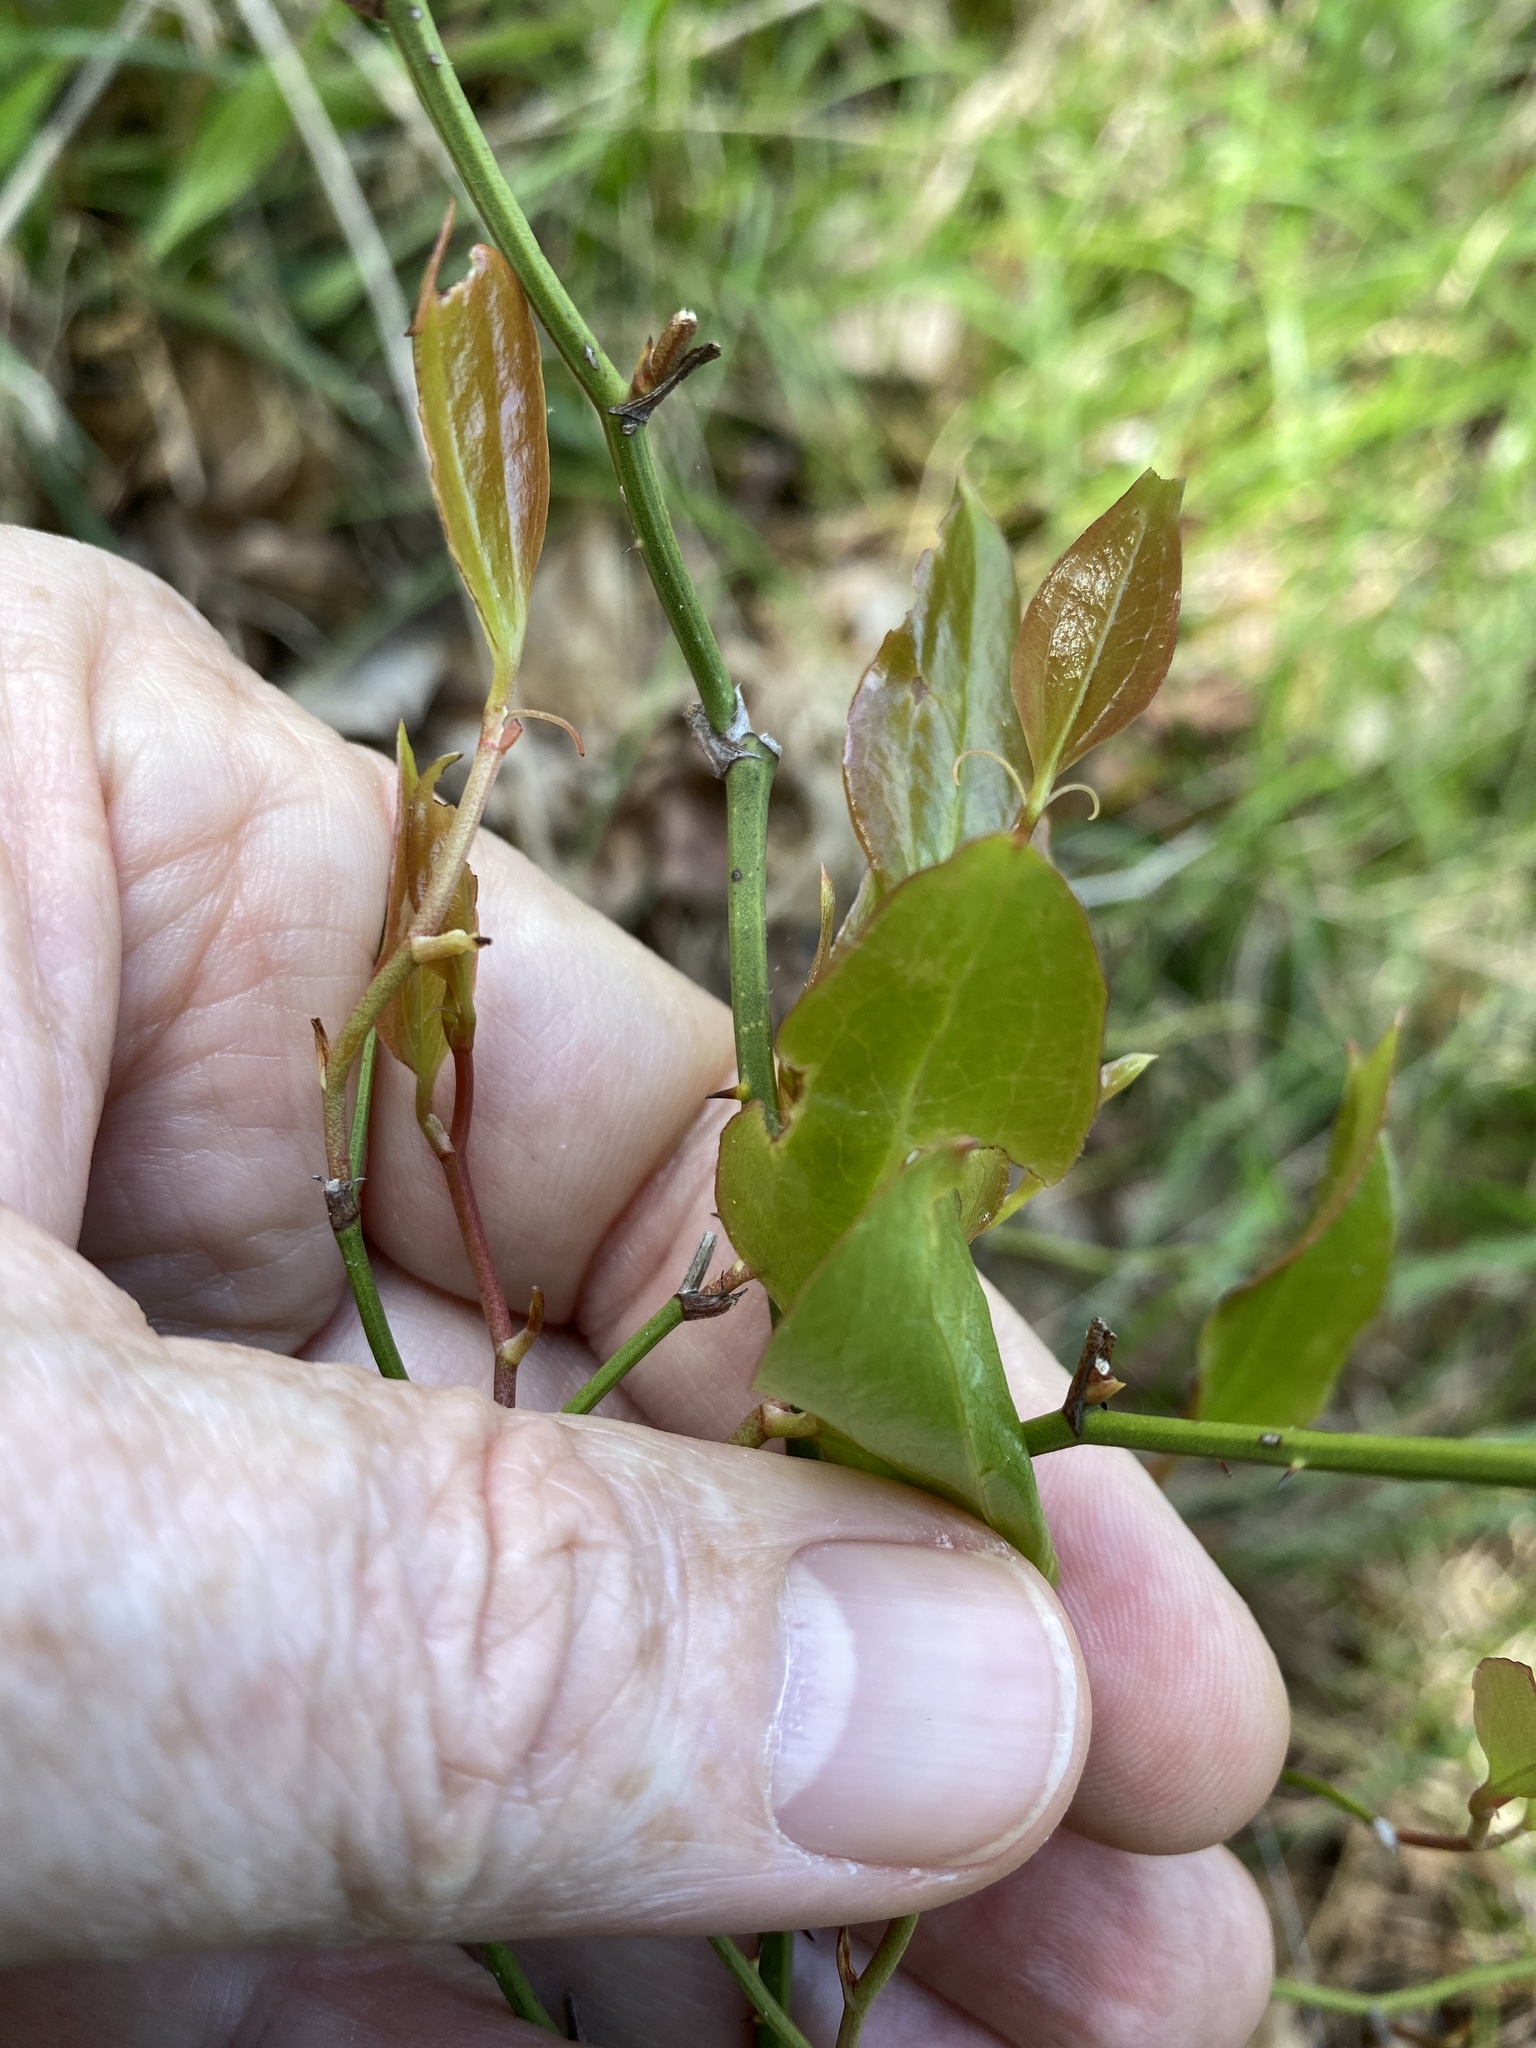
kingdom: Plantae
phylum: Tracheophyta
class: Liliopsida
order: Liliales
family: Smilacaceae
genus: Smilax
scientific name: Smilax rotundifolia
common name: Bullbriar
